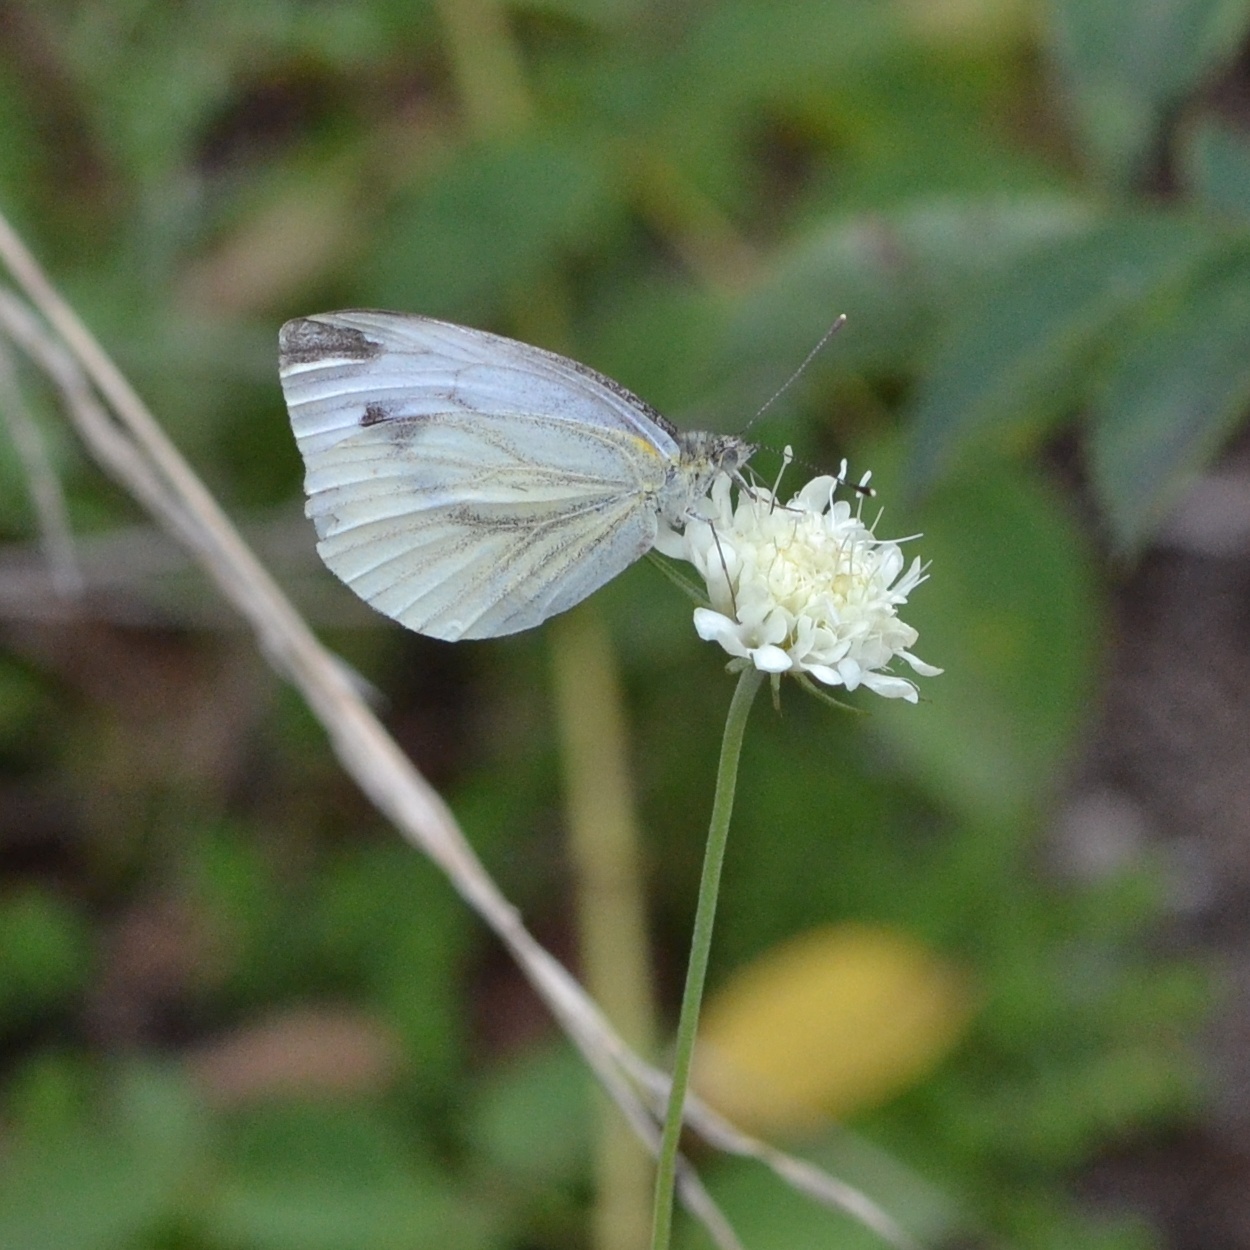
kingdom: Animalia
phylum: Arthropoda
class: Insecta
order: Lepidoptera
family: Pieridae
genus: Pieris
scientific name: Pieris napi
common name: Green-veined white
